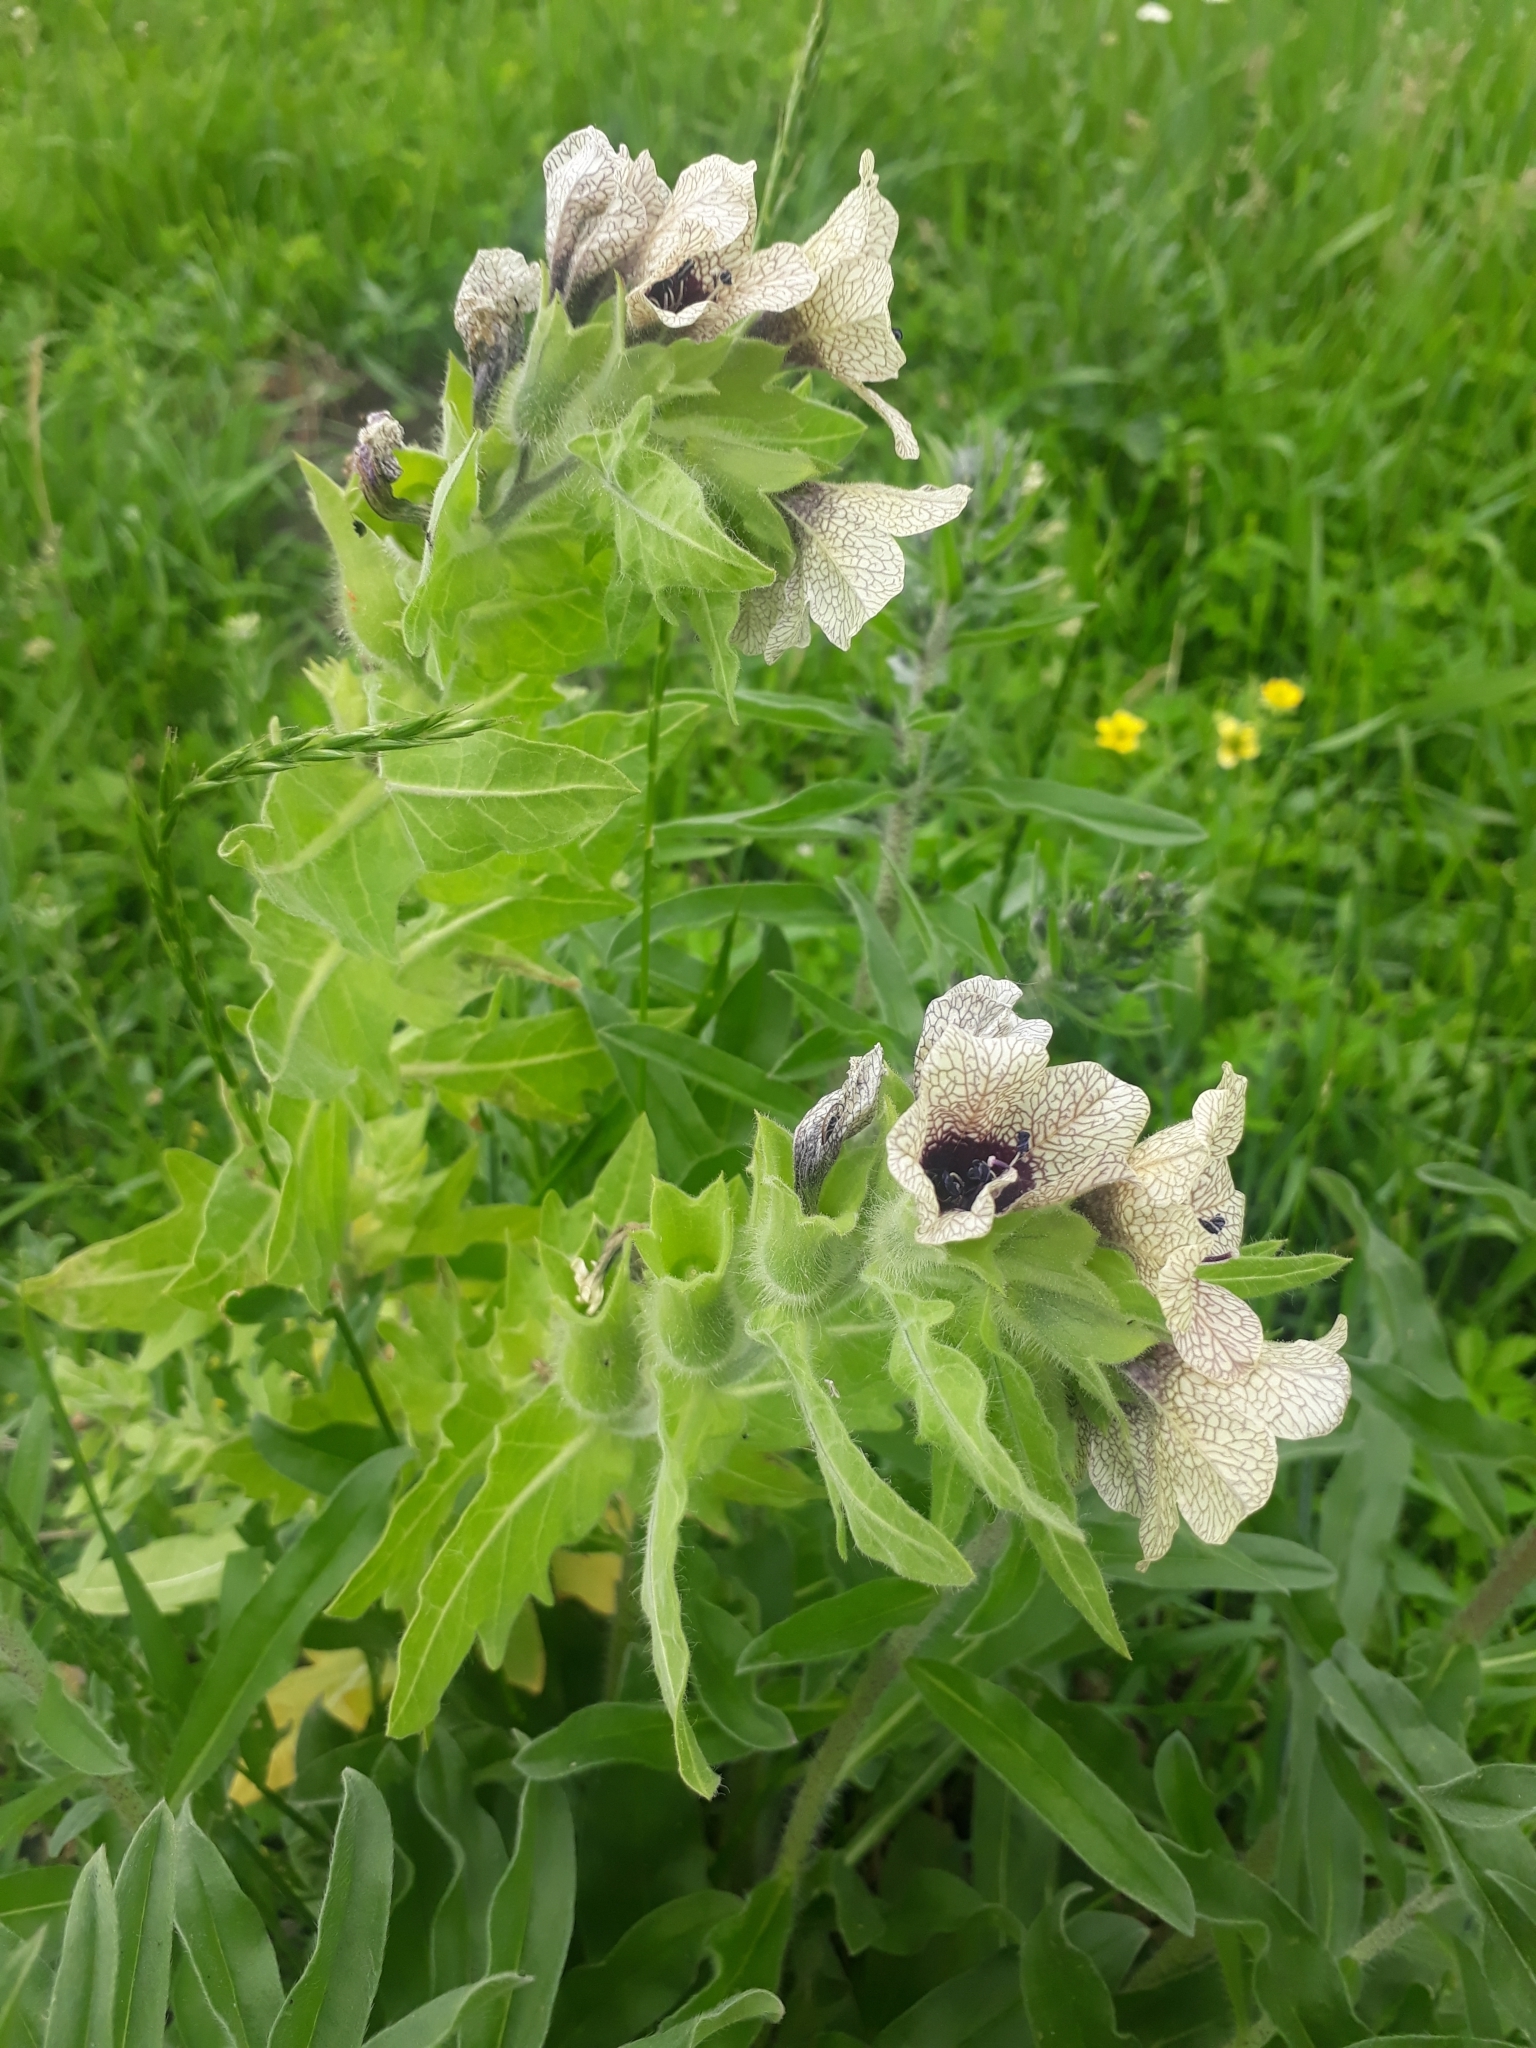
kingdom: Plantae
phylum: Tracheophyta
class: Magnoliopsida
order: Solanales
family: Solanaceae
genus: Hyoscyamus
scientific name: Hyoscyamus niger
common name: Henbane
